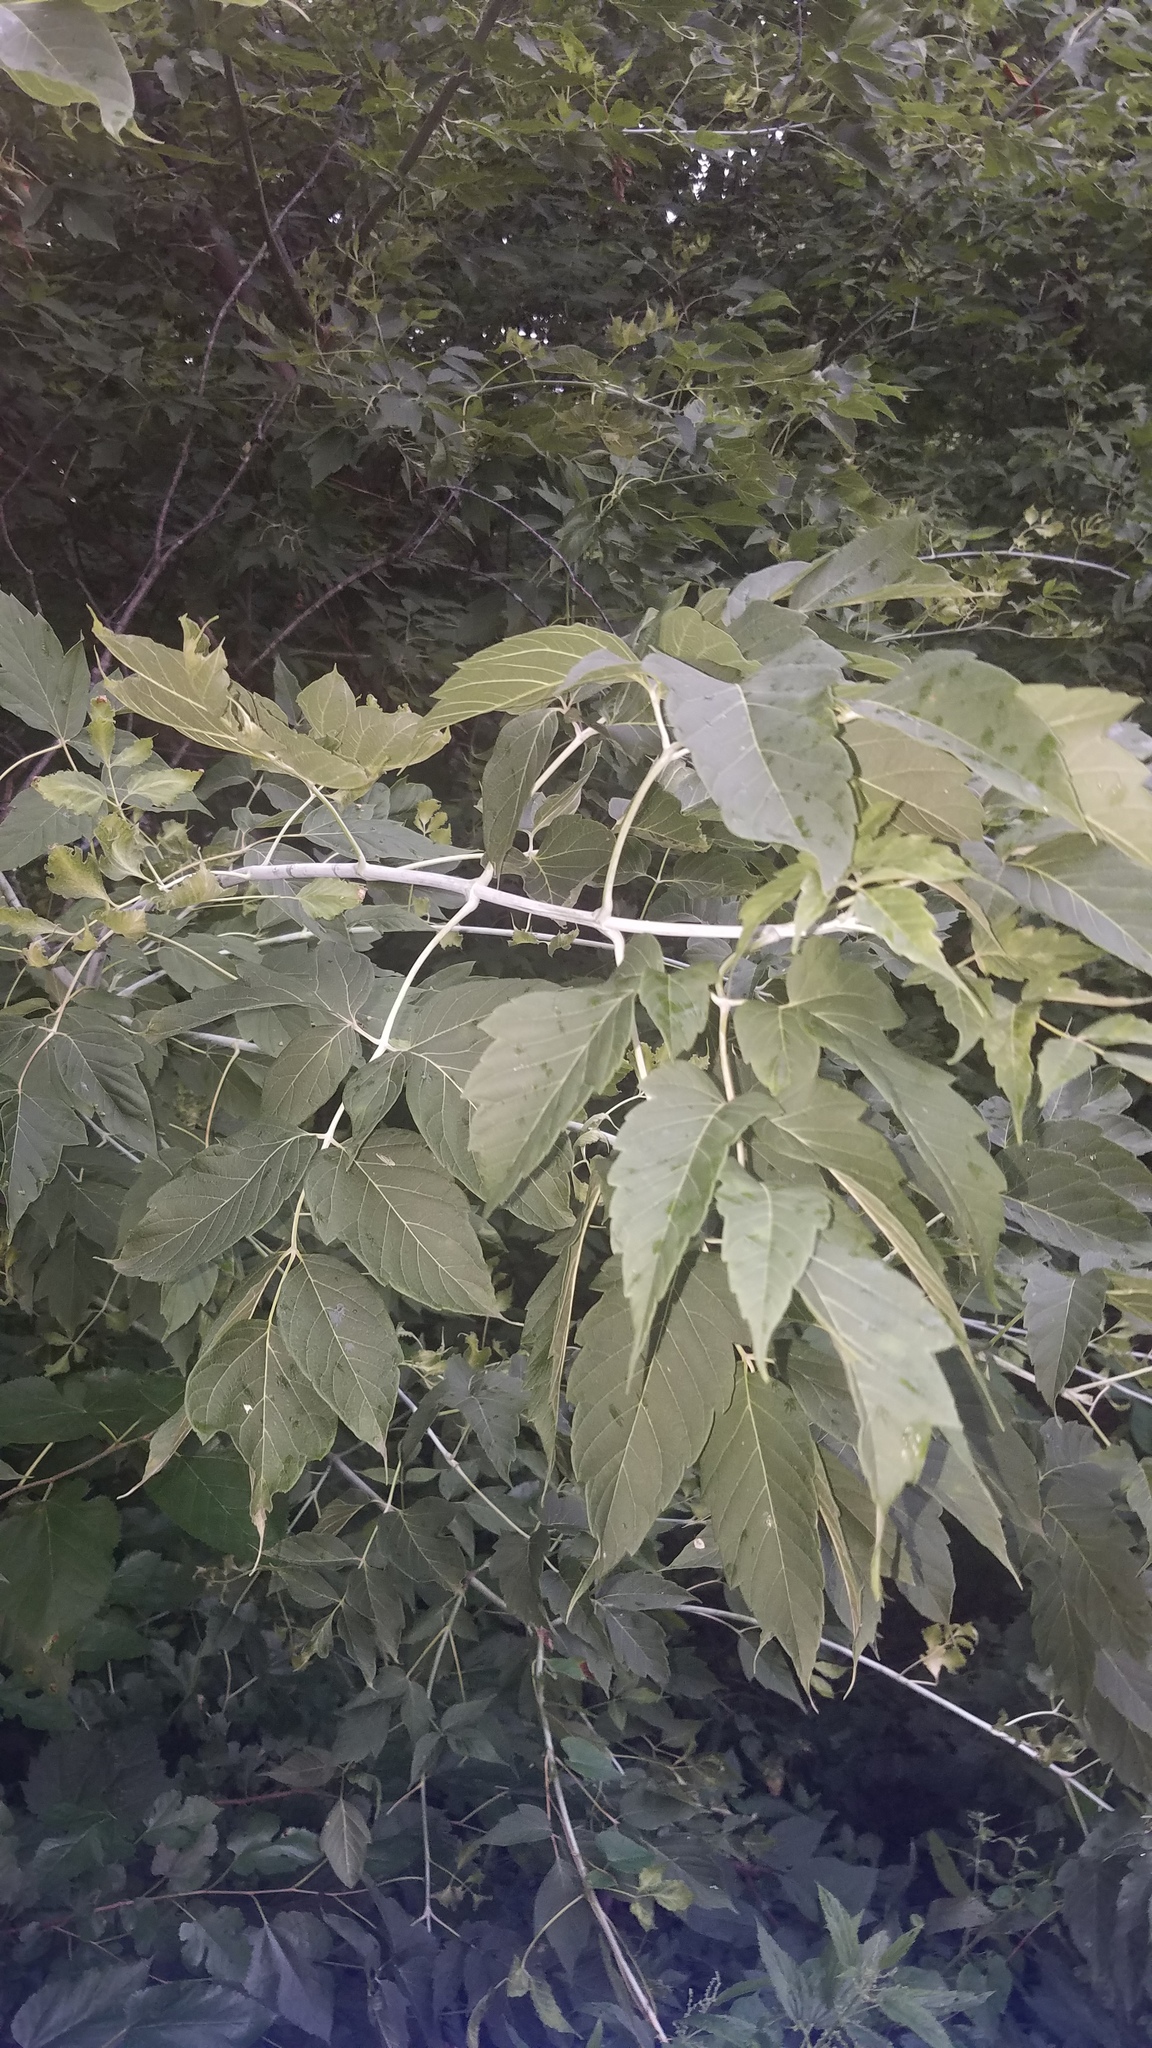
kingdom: Plantae
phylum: Tracheophyta
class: Magnoliopsida
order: Sapindales
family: Sapindaceae
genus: Acer
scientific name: Acer negundo
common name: Ashleaf maple
